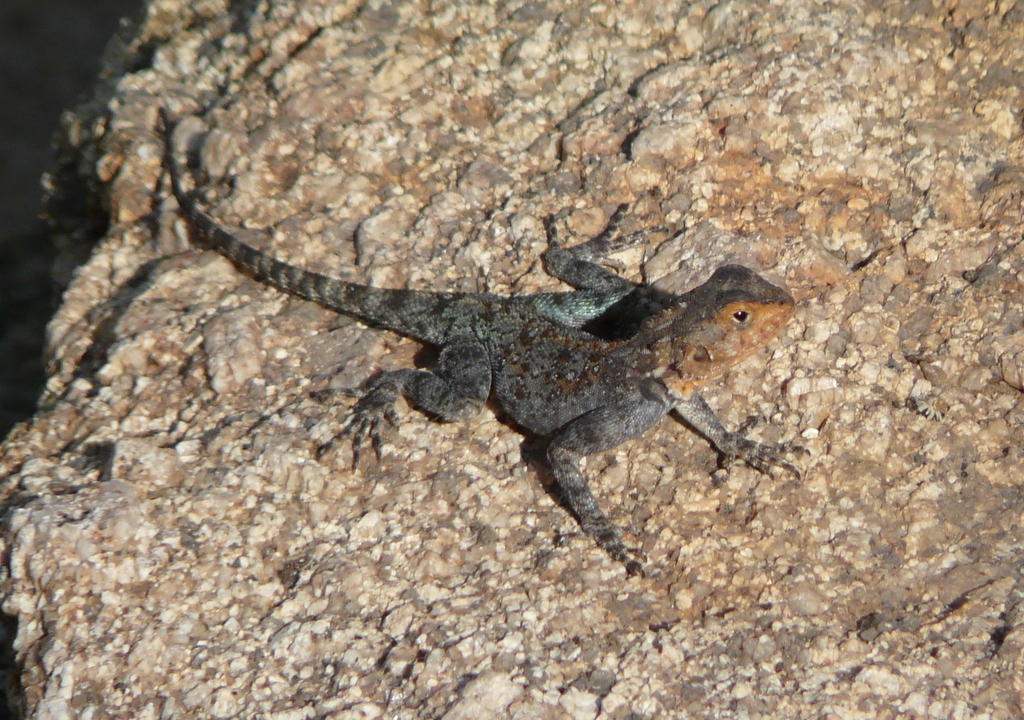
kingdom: Animalia
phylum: Chordata
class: Squamata
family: Agamidae
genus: Agama
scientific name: Agama kirkii
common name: Kirk's rock agama
